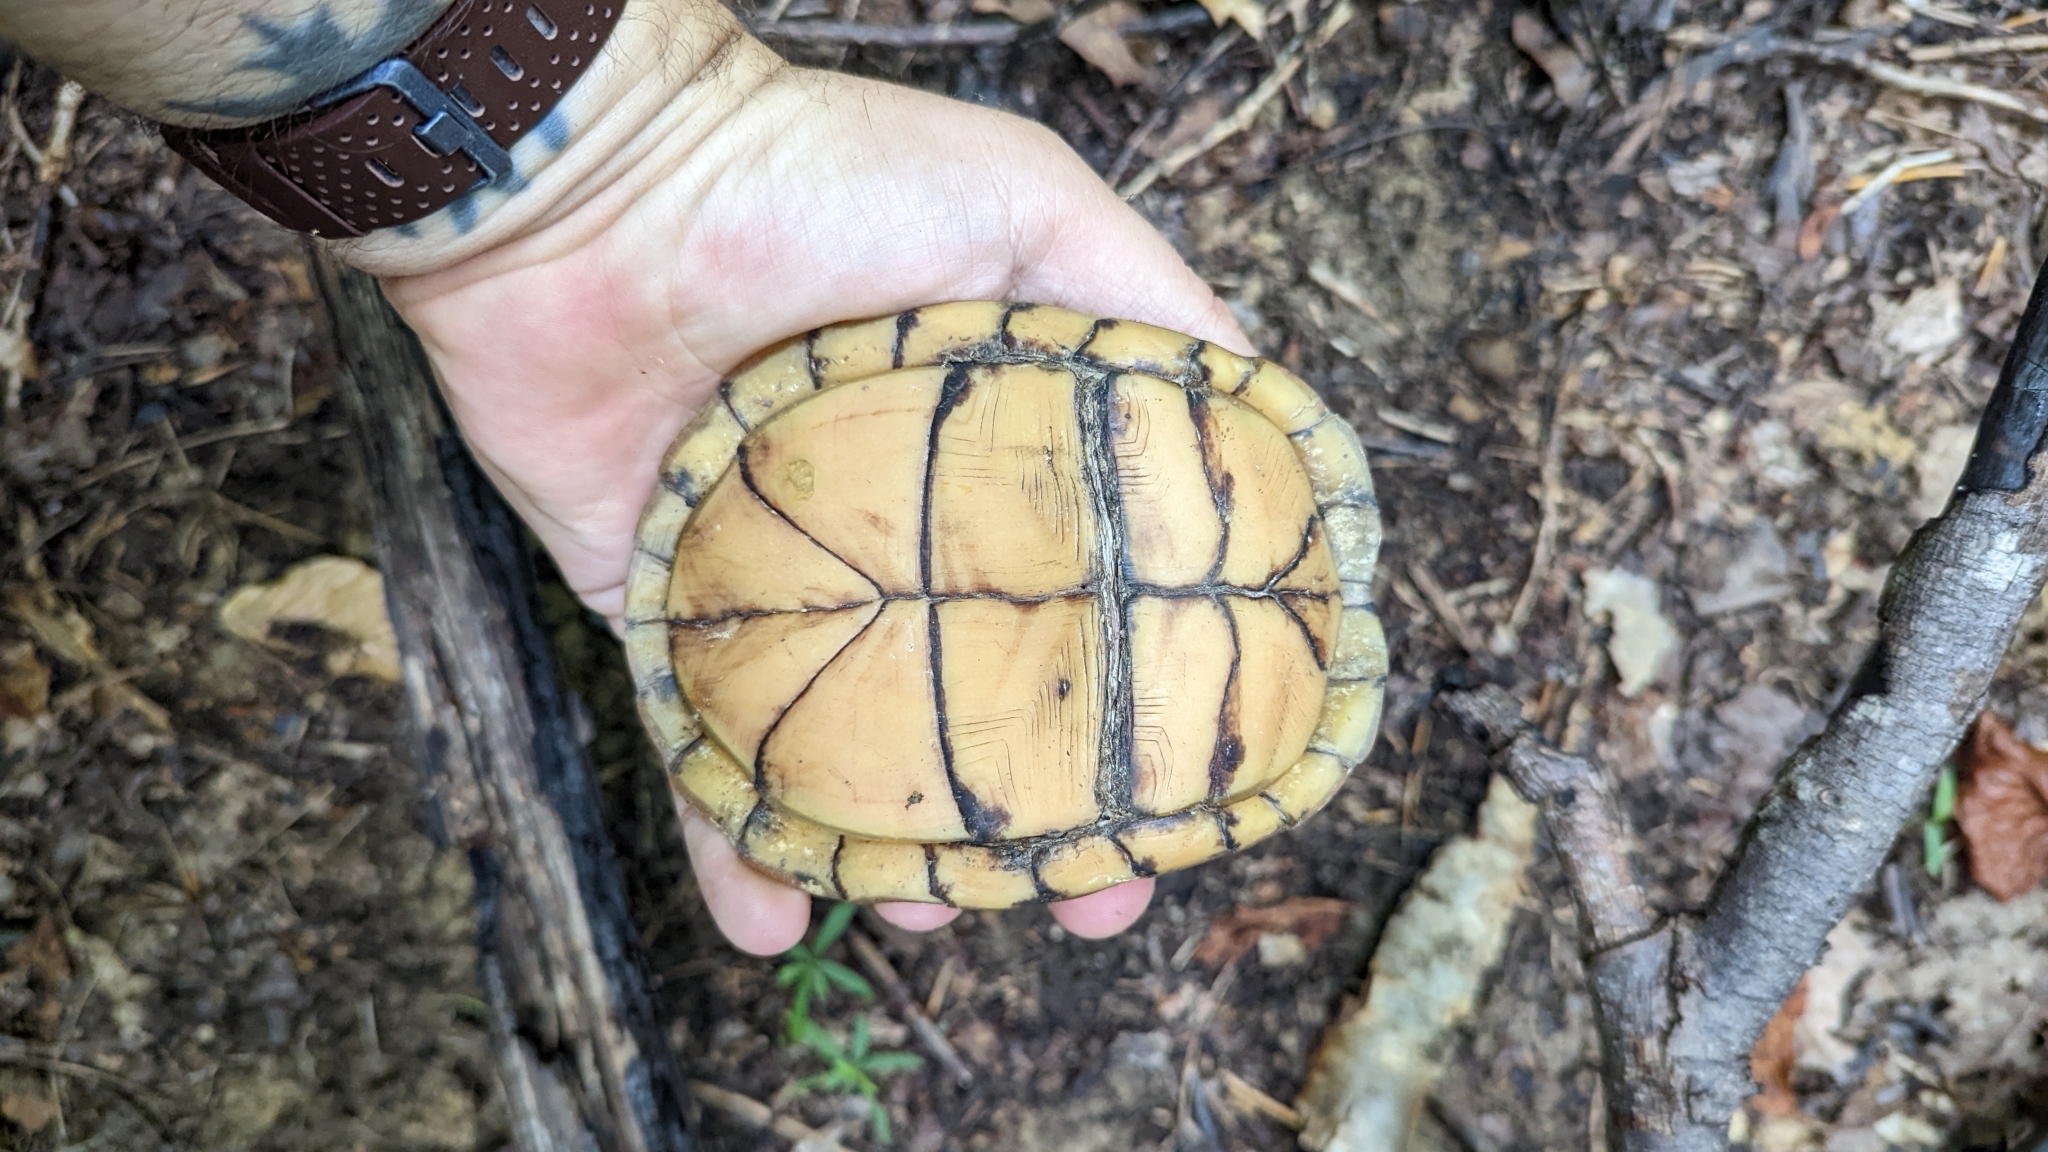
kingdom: Animalia
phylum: Chordata
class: Testudines
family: Emydidae
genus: Terrapene
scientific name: Terrapene carolina
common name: Common box turtle
